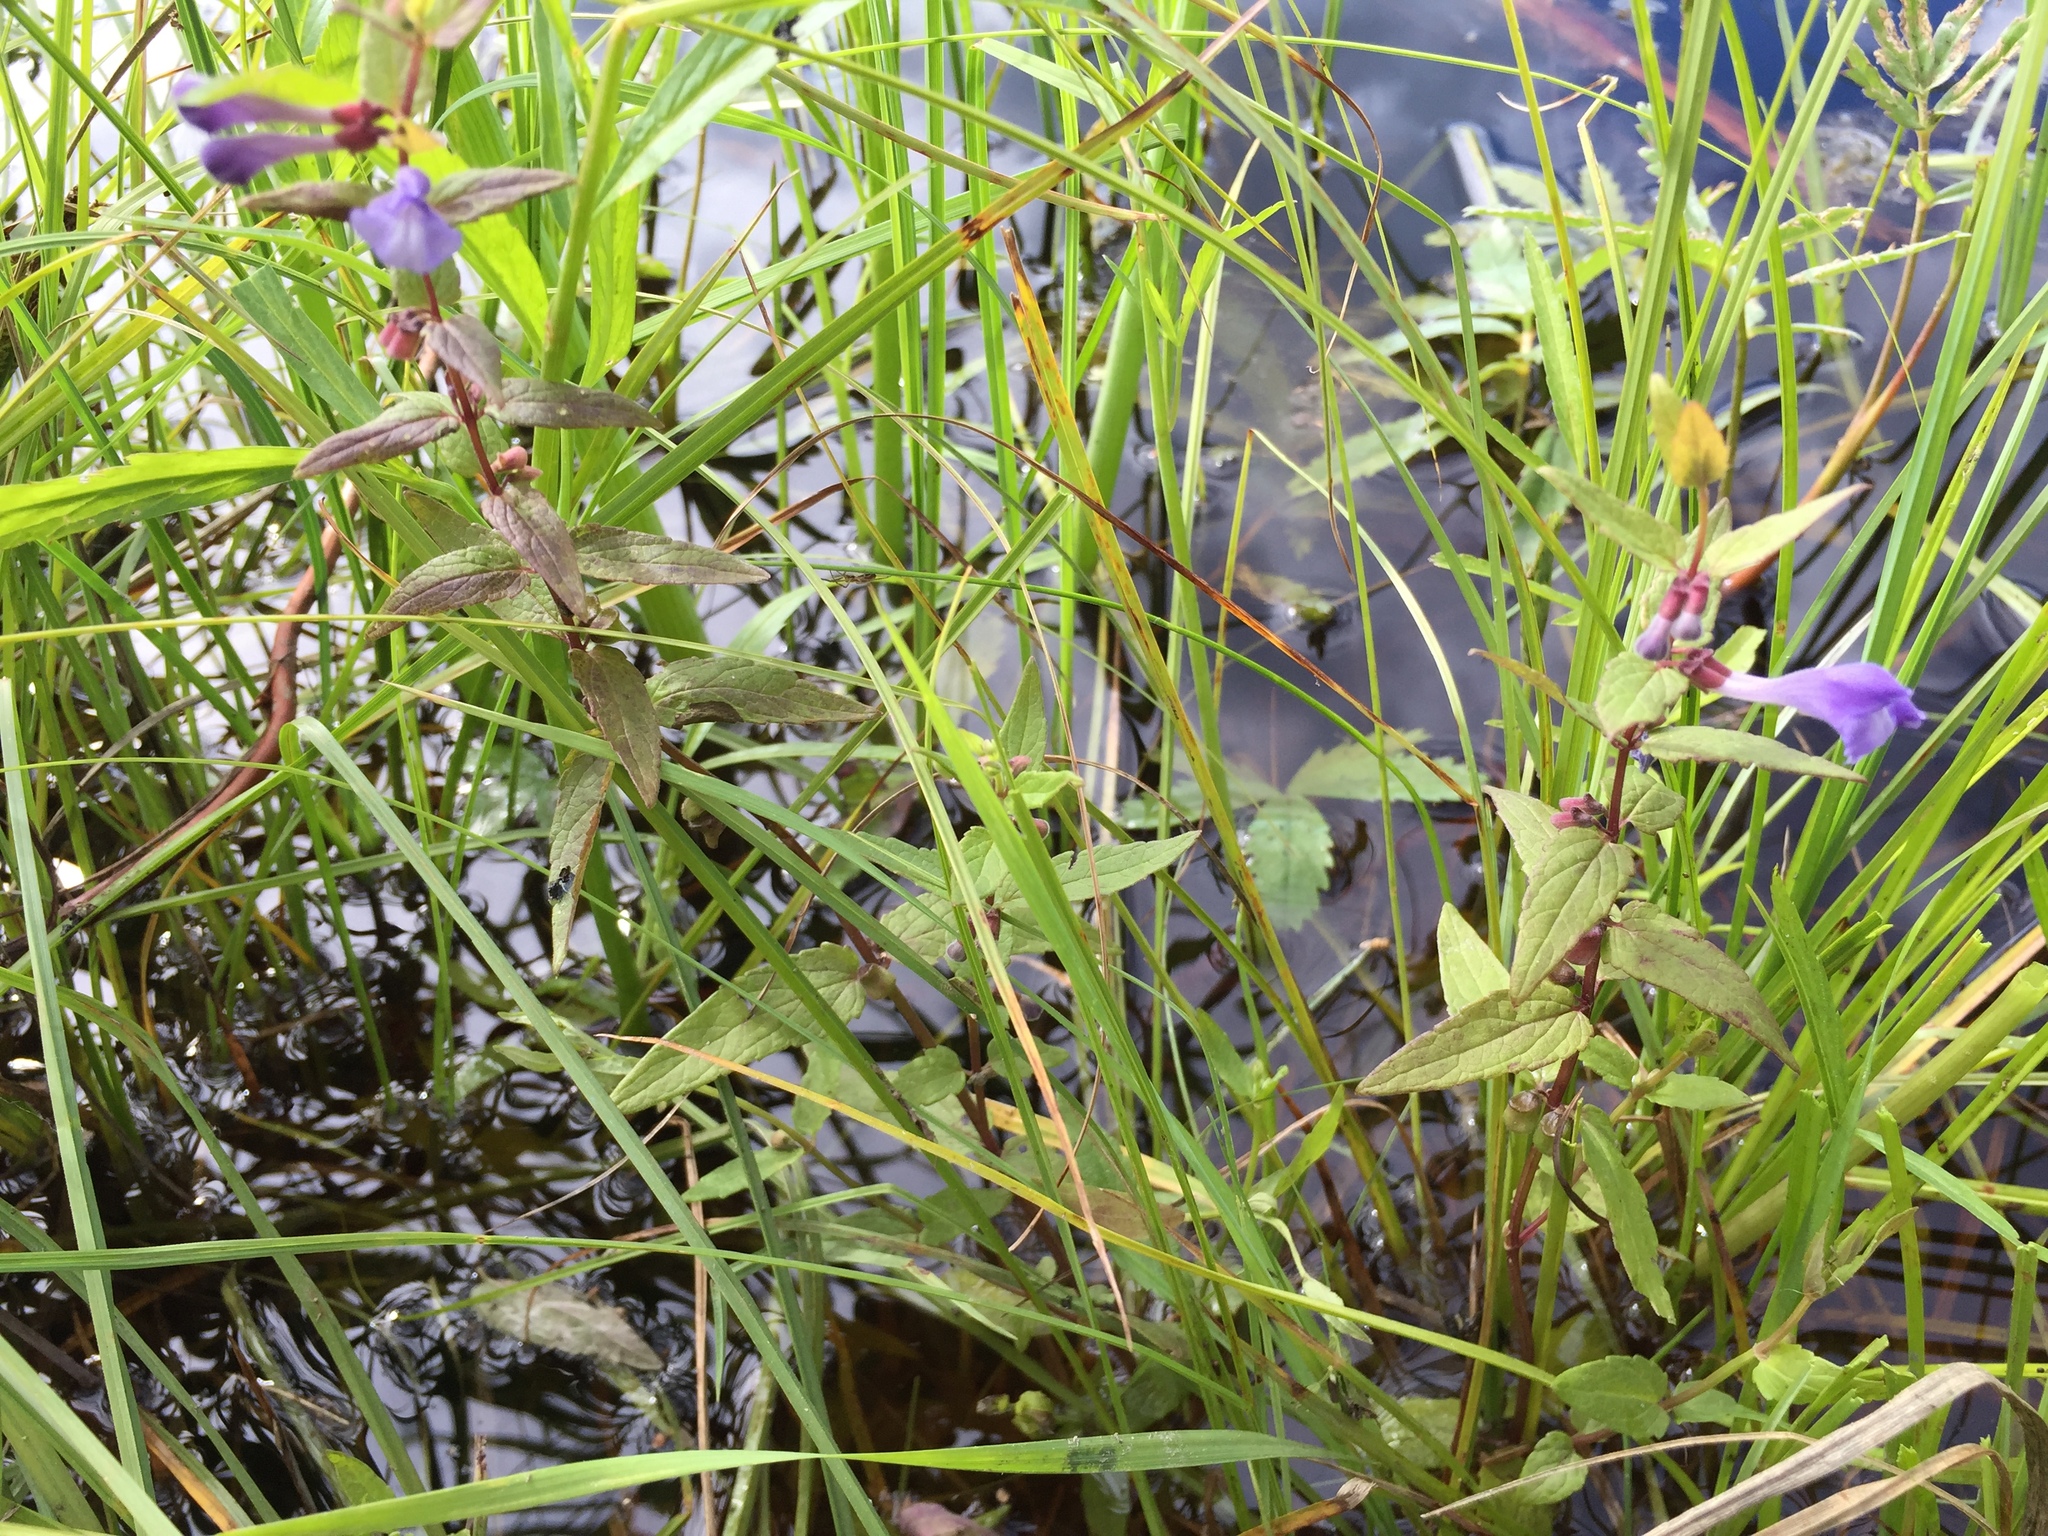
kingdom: Plantae
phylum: Tracheophyta
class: Magnoliopsida
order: Lamiales
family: Lamiaceae
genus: Scutellaria
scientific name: Scutellaria galericulata
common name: Skullcap
